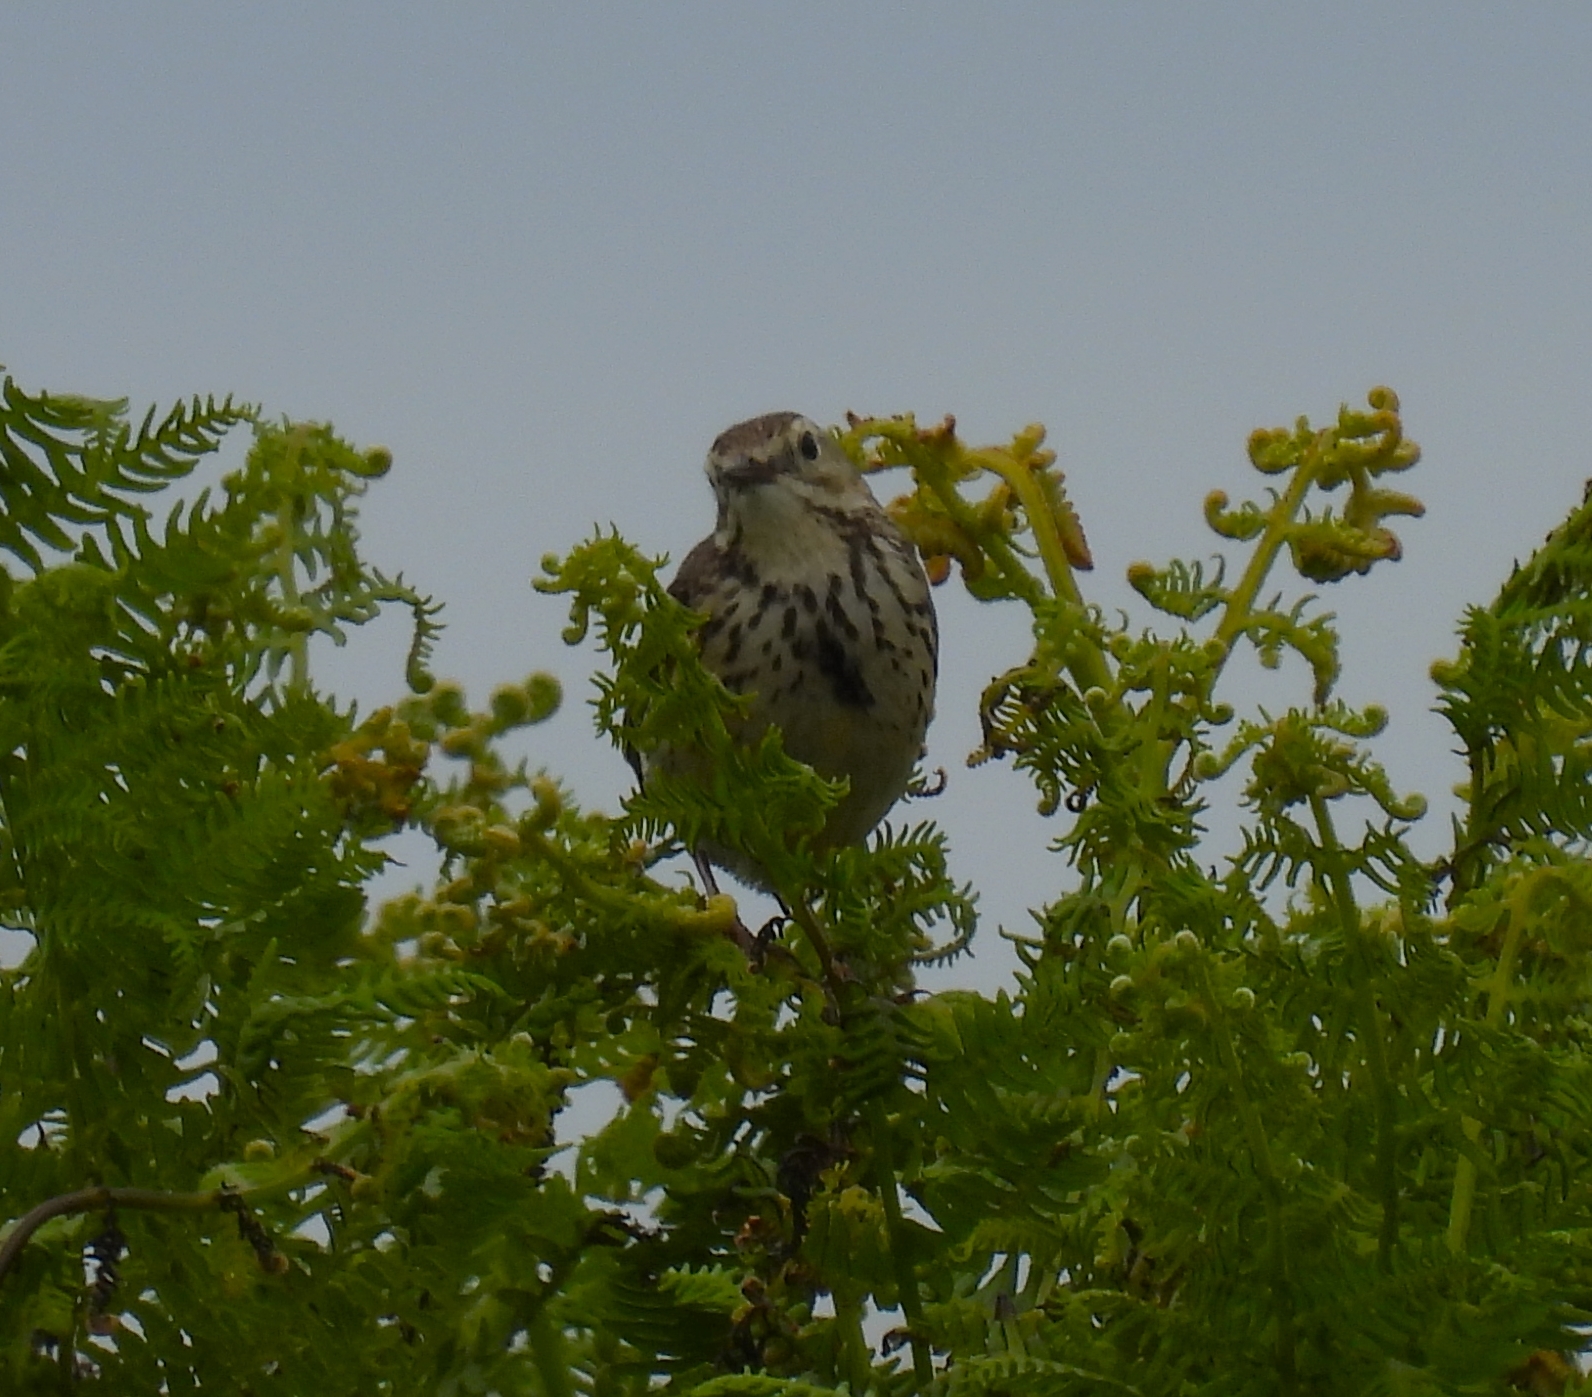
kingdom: Animalia
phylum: Chordata
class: Aves
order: Passeriformes
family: Motacillidae
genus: Anthus
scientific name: Anthus pratensis
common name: Meadow pipit
